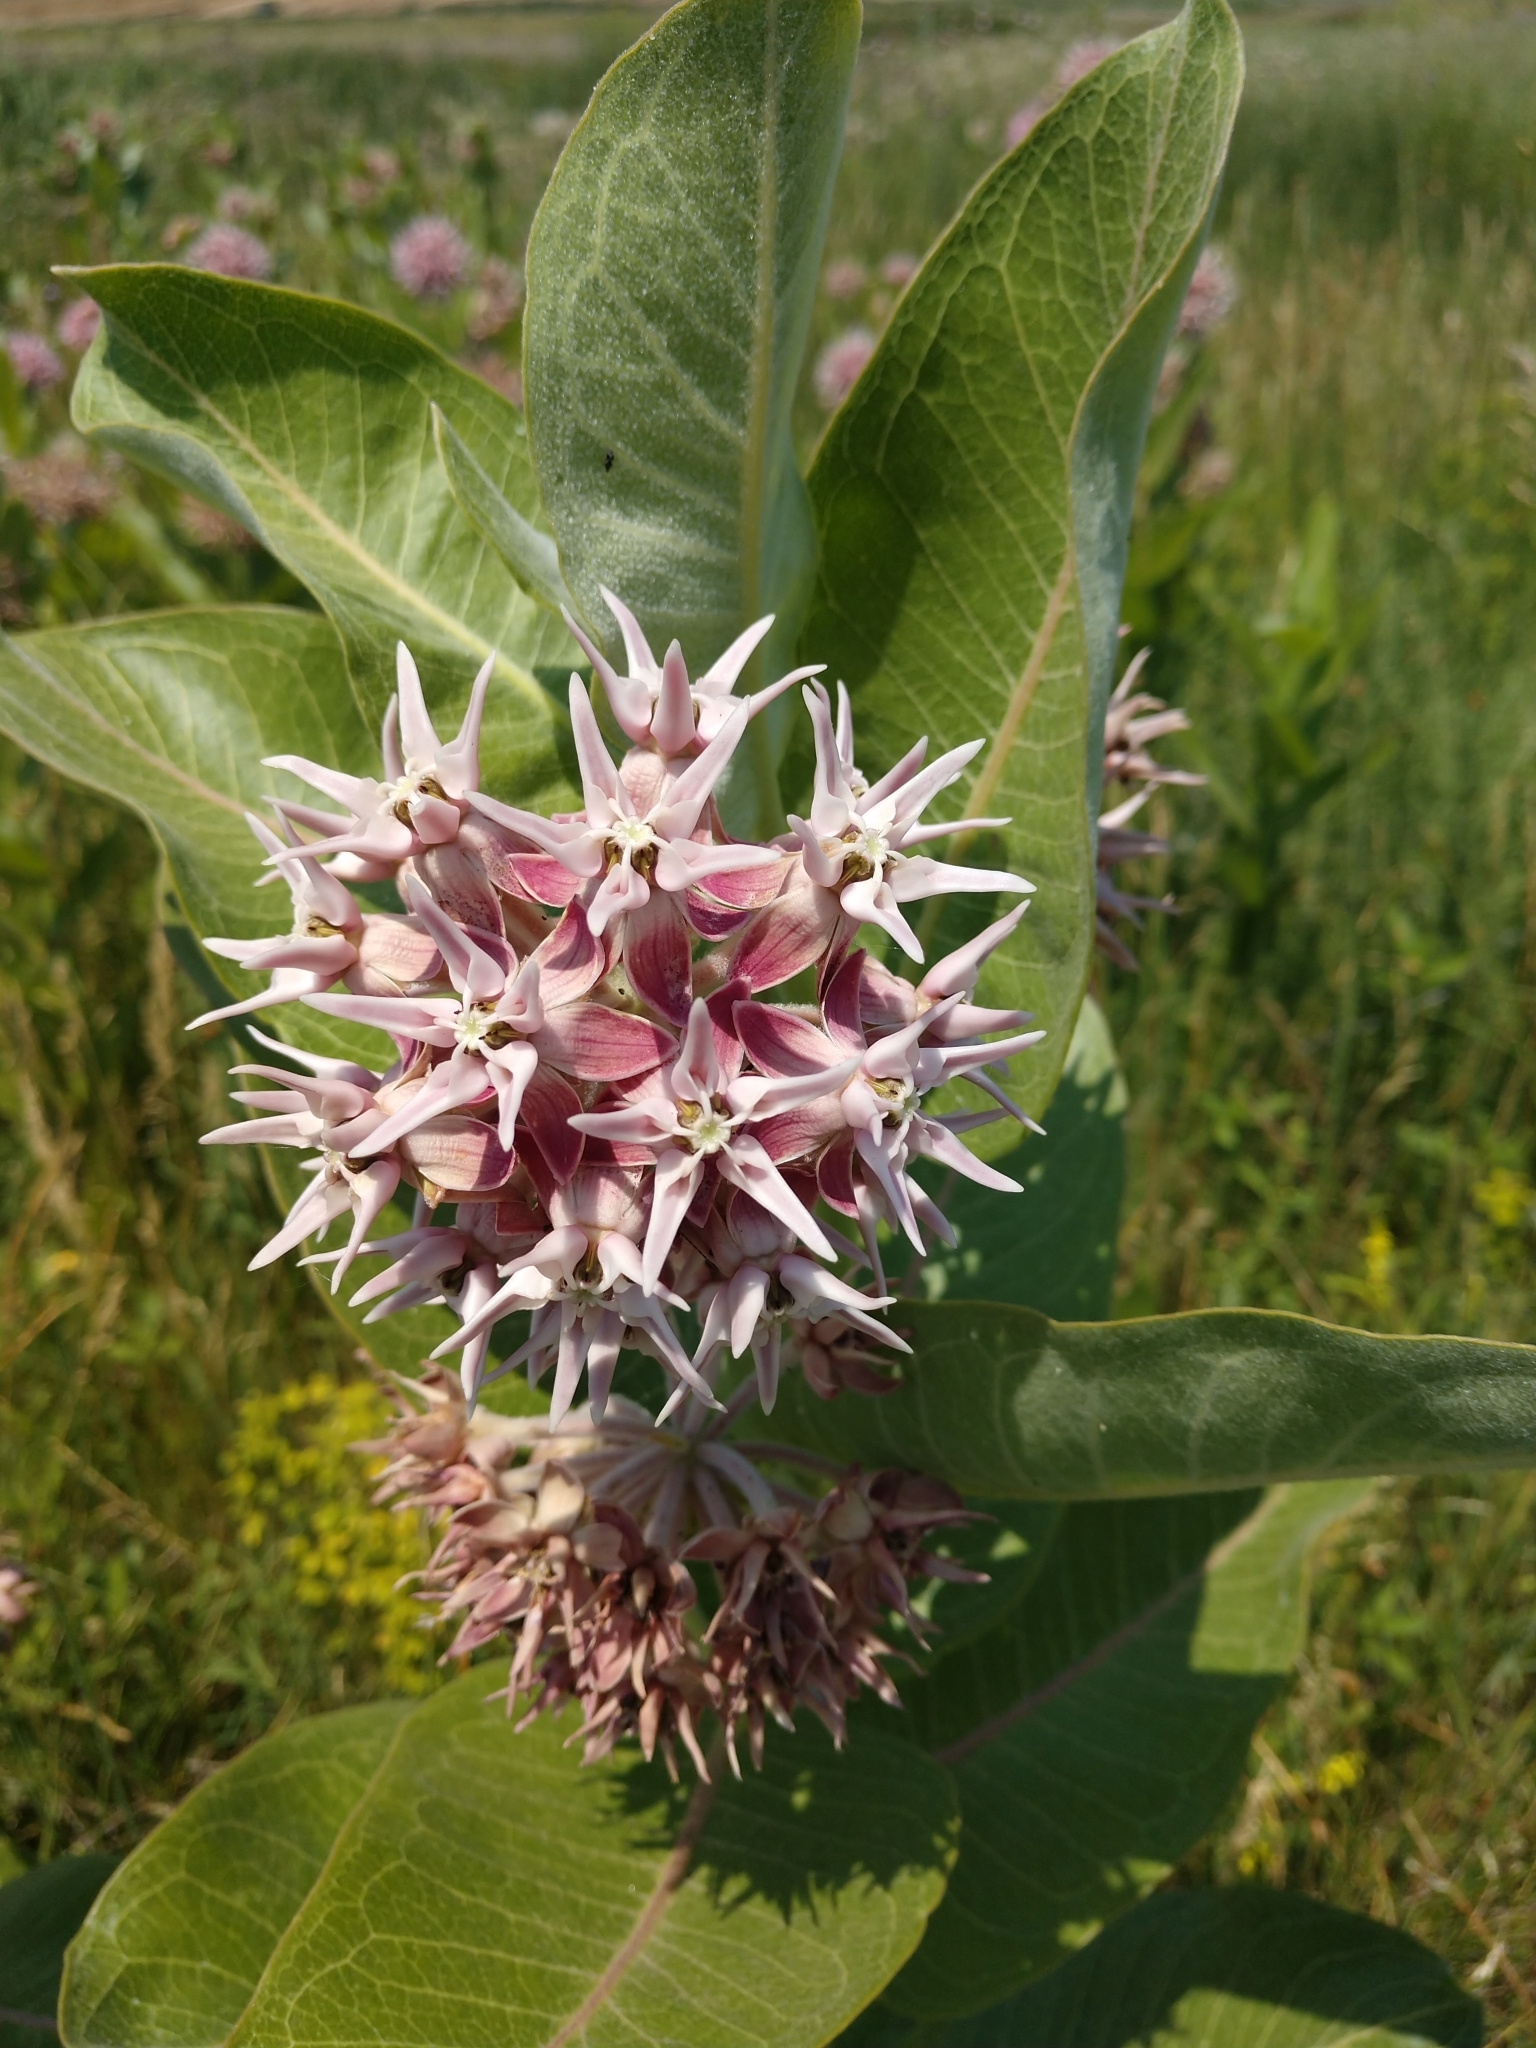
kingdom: Plantae
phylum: Tracheophyta
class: Magnoliopsida
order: Gentianales
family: Apocynaceae
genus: Asclepias
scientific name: Asclepias speciosa
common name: Showy milkweed
